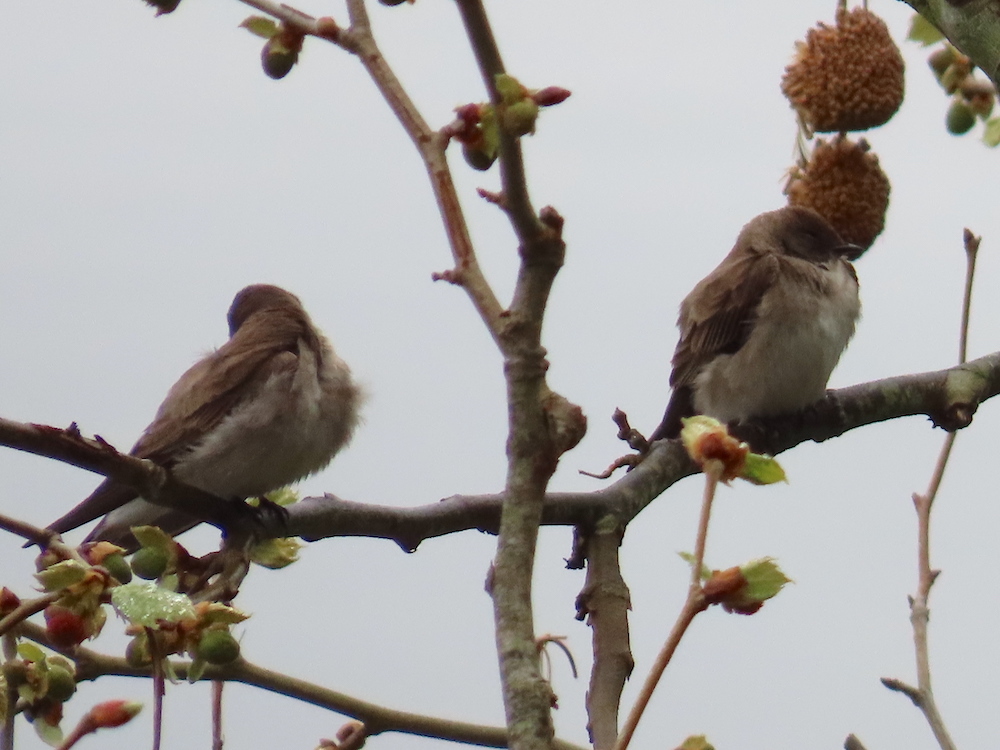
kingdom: Animalia
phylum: Chordata
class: Aves
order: Passeriformes
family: Hirundinidae
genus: Stelgidopteryx
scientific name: Stelgidopteryx serripennis
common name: Northern rough-winged swallow
